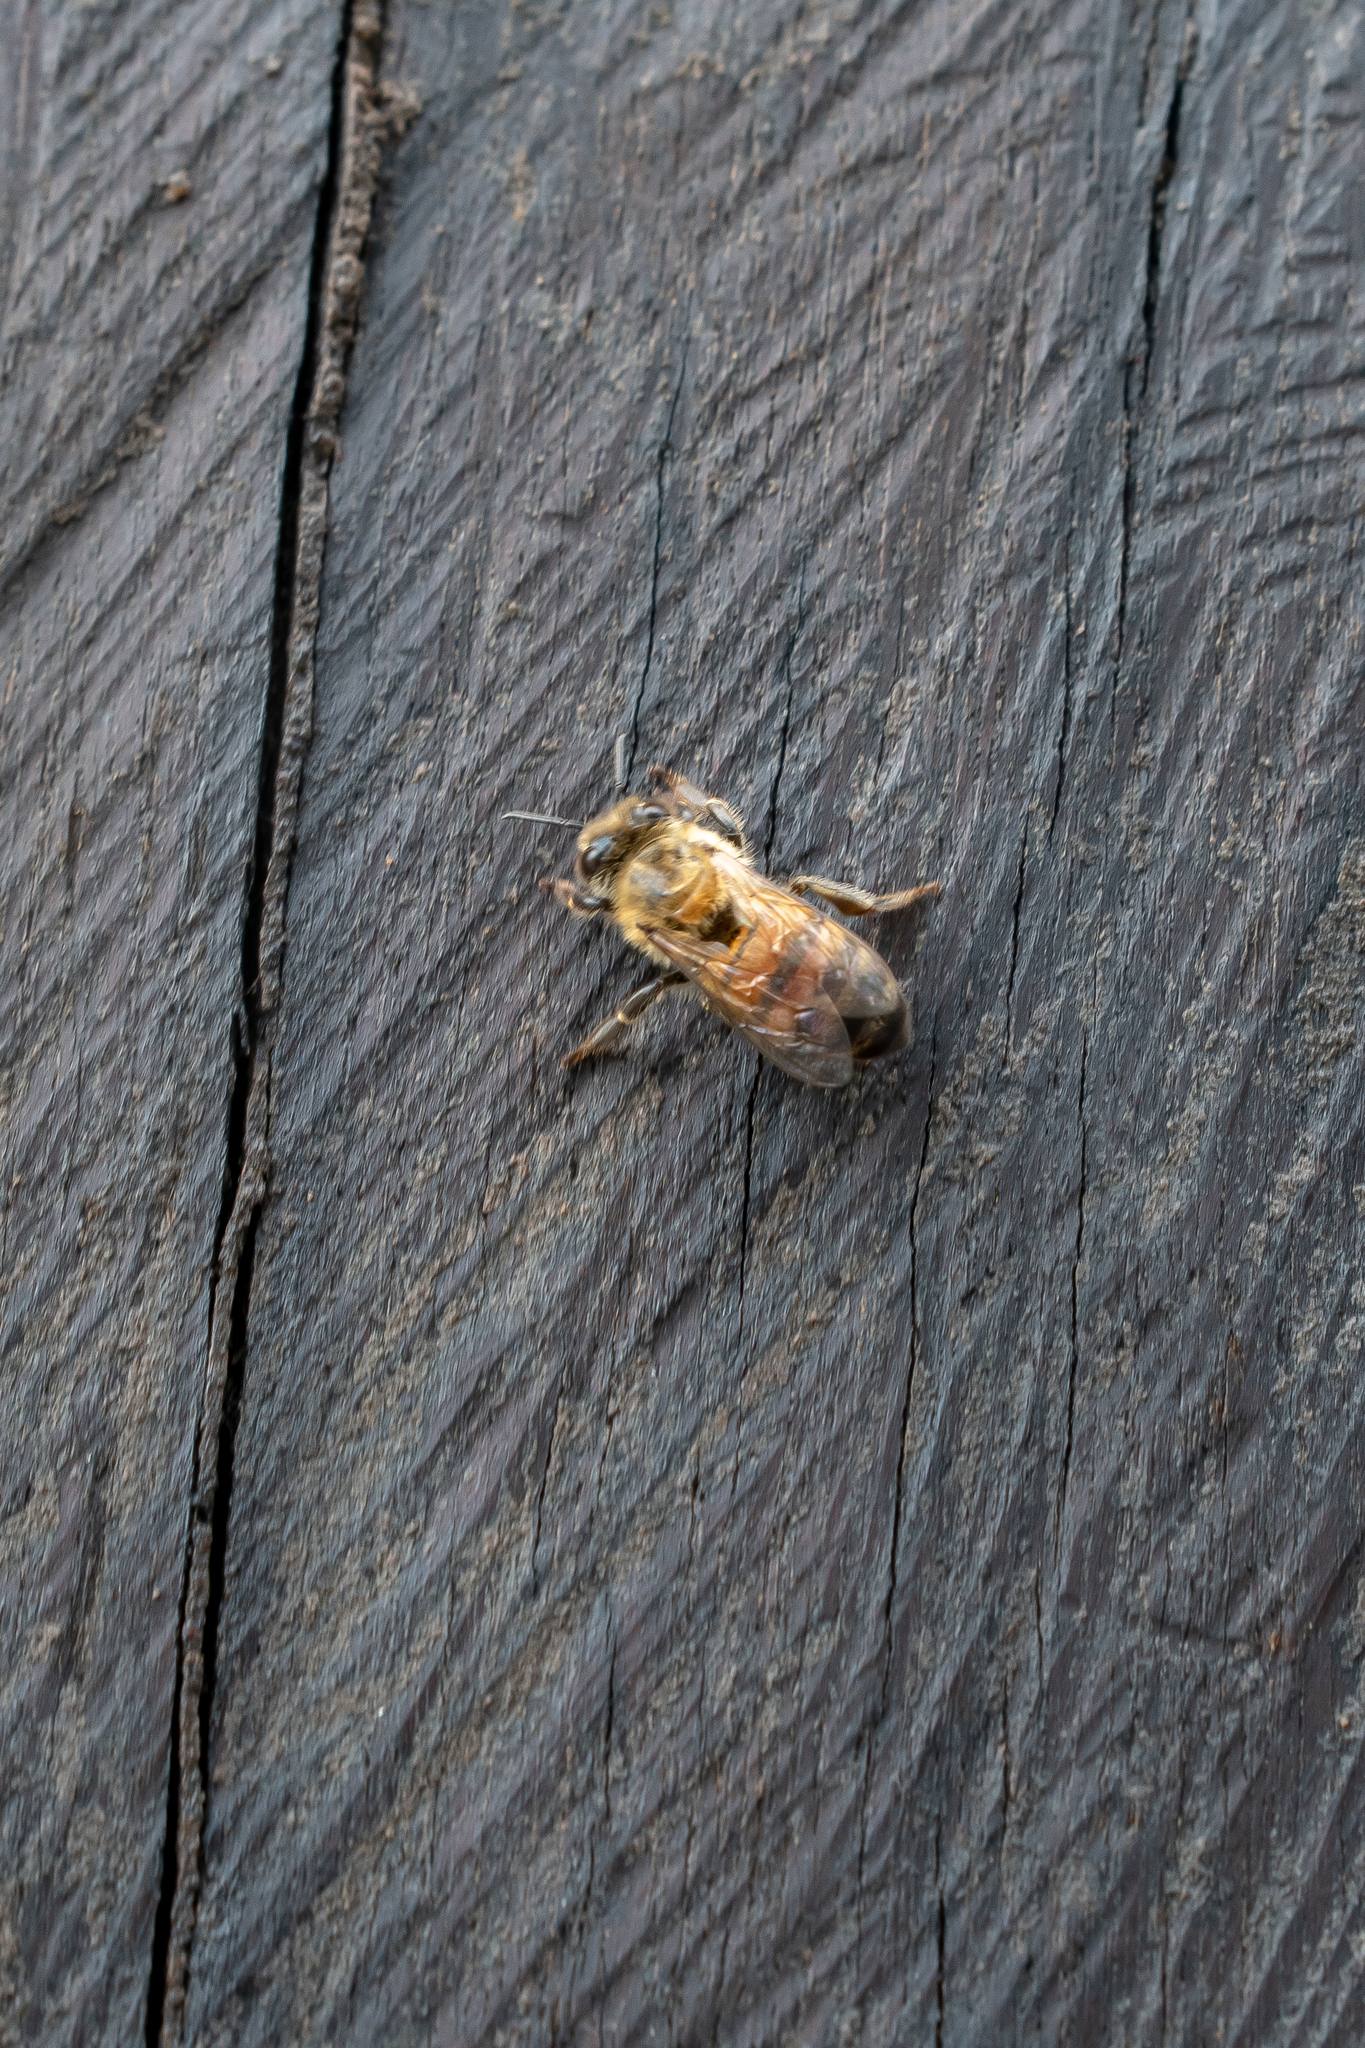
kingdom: Animalia
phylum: Arthropoda
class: Insecta
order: Hymenoptera
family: Apidae
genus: Apis
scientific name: Apis mellifera
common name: Honey bee
